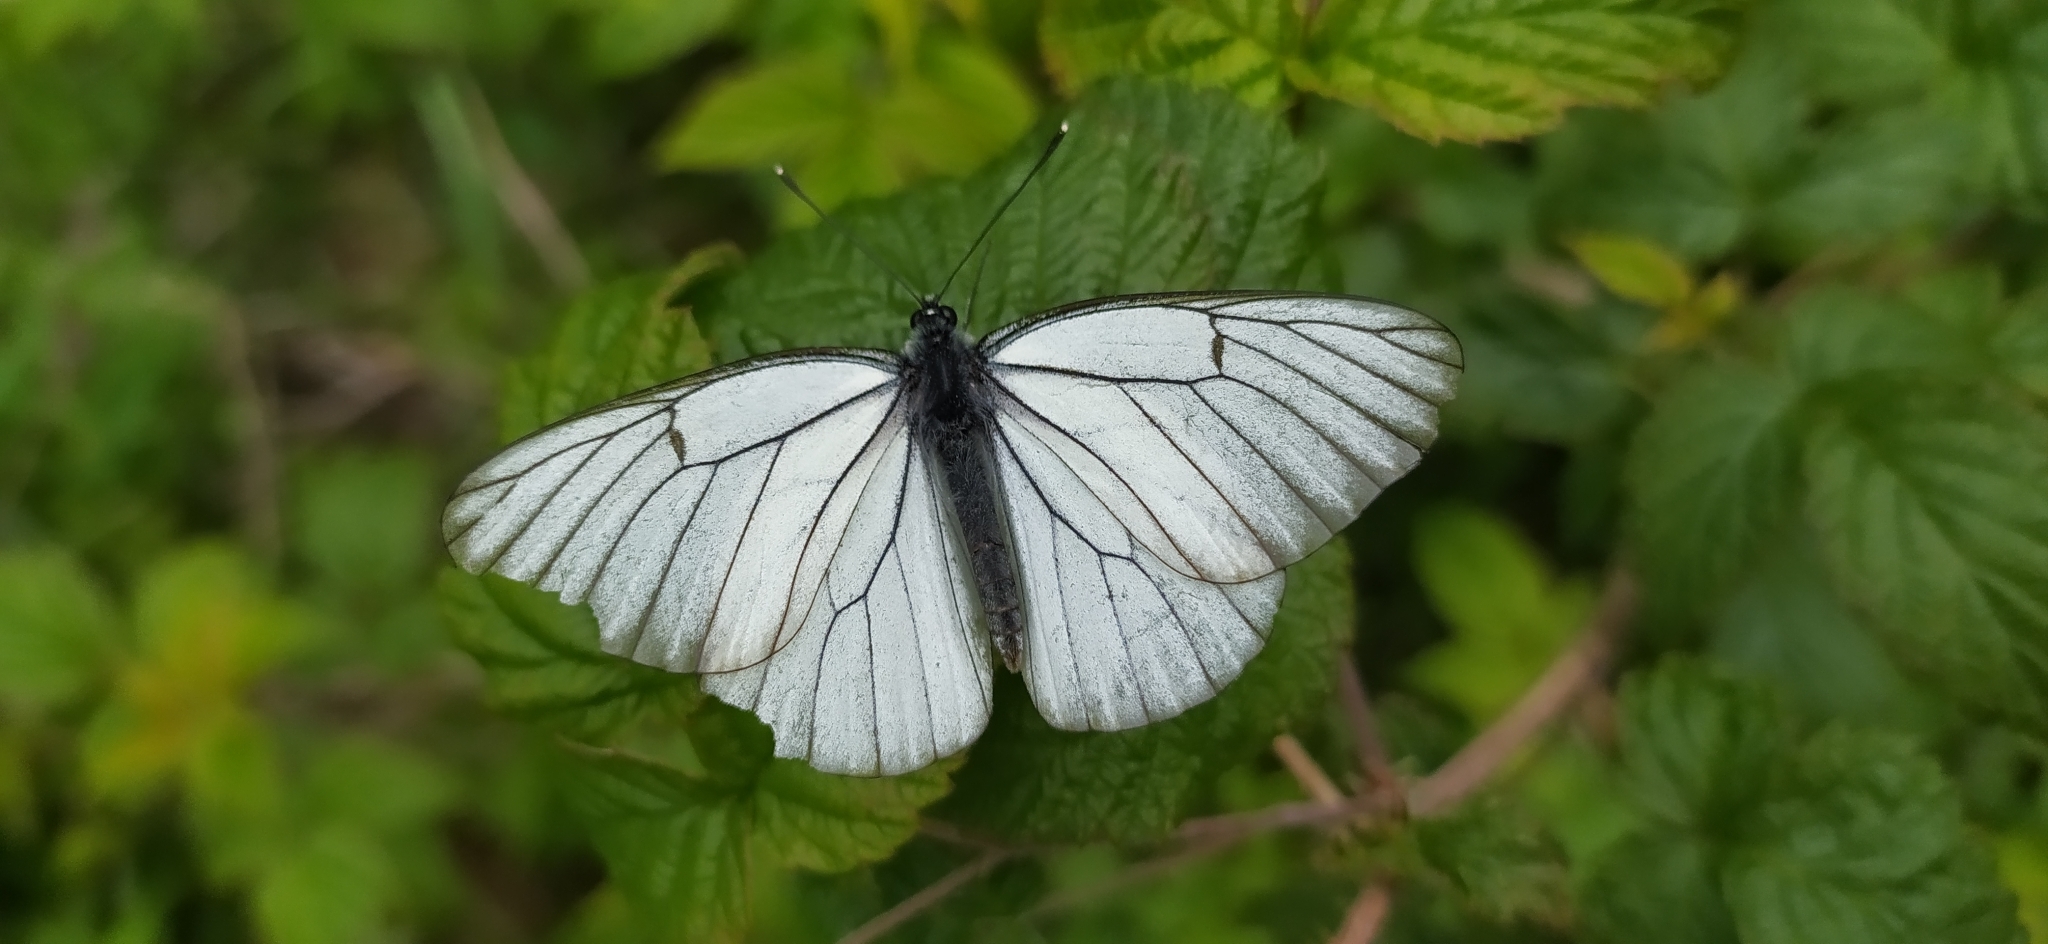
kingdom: Animalia
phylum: Arthropoda
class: Insecta
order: Lepidoptera
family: Pieridae
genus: Aporia
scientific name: Aporia crataegi
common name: Black-veined white
